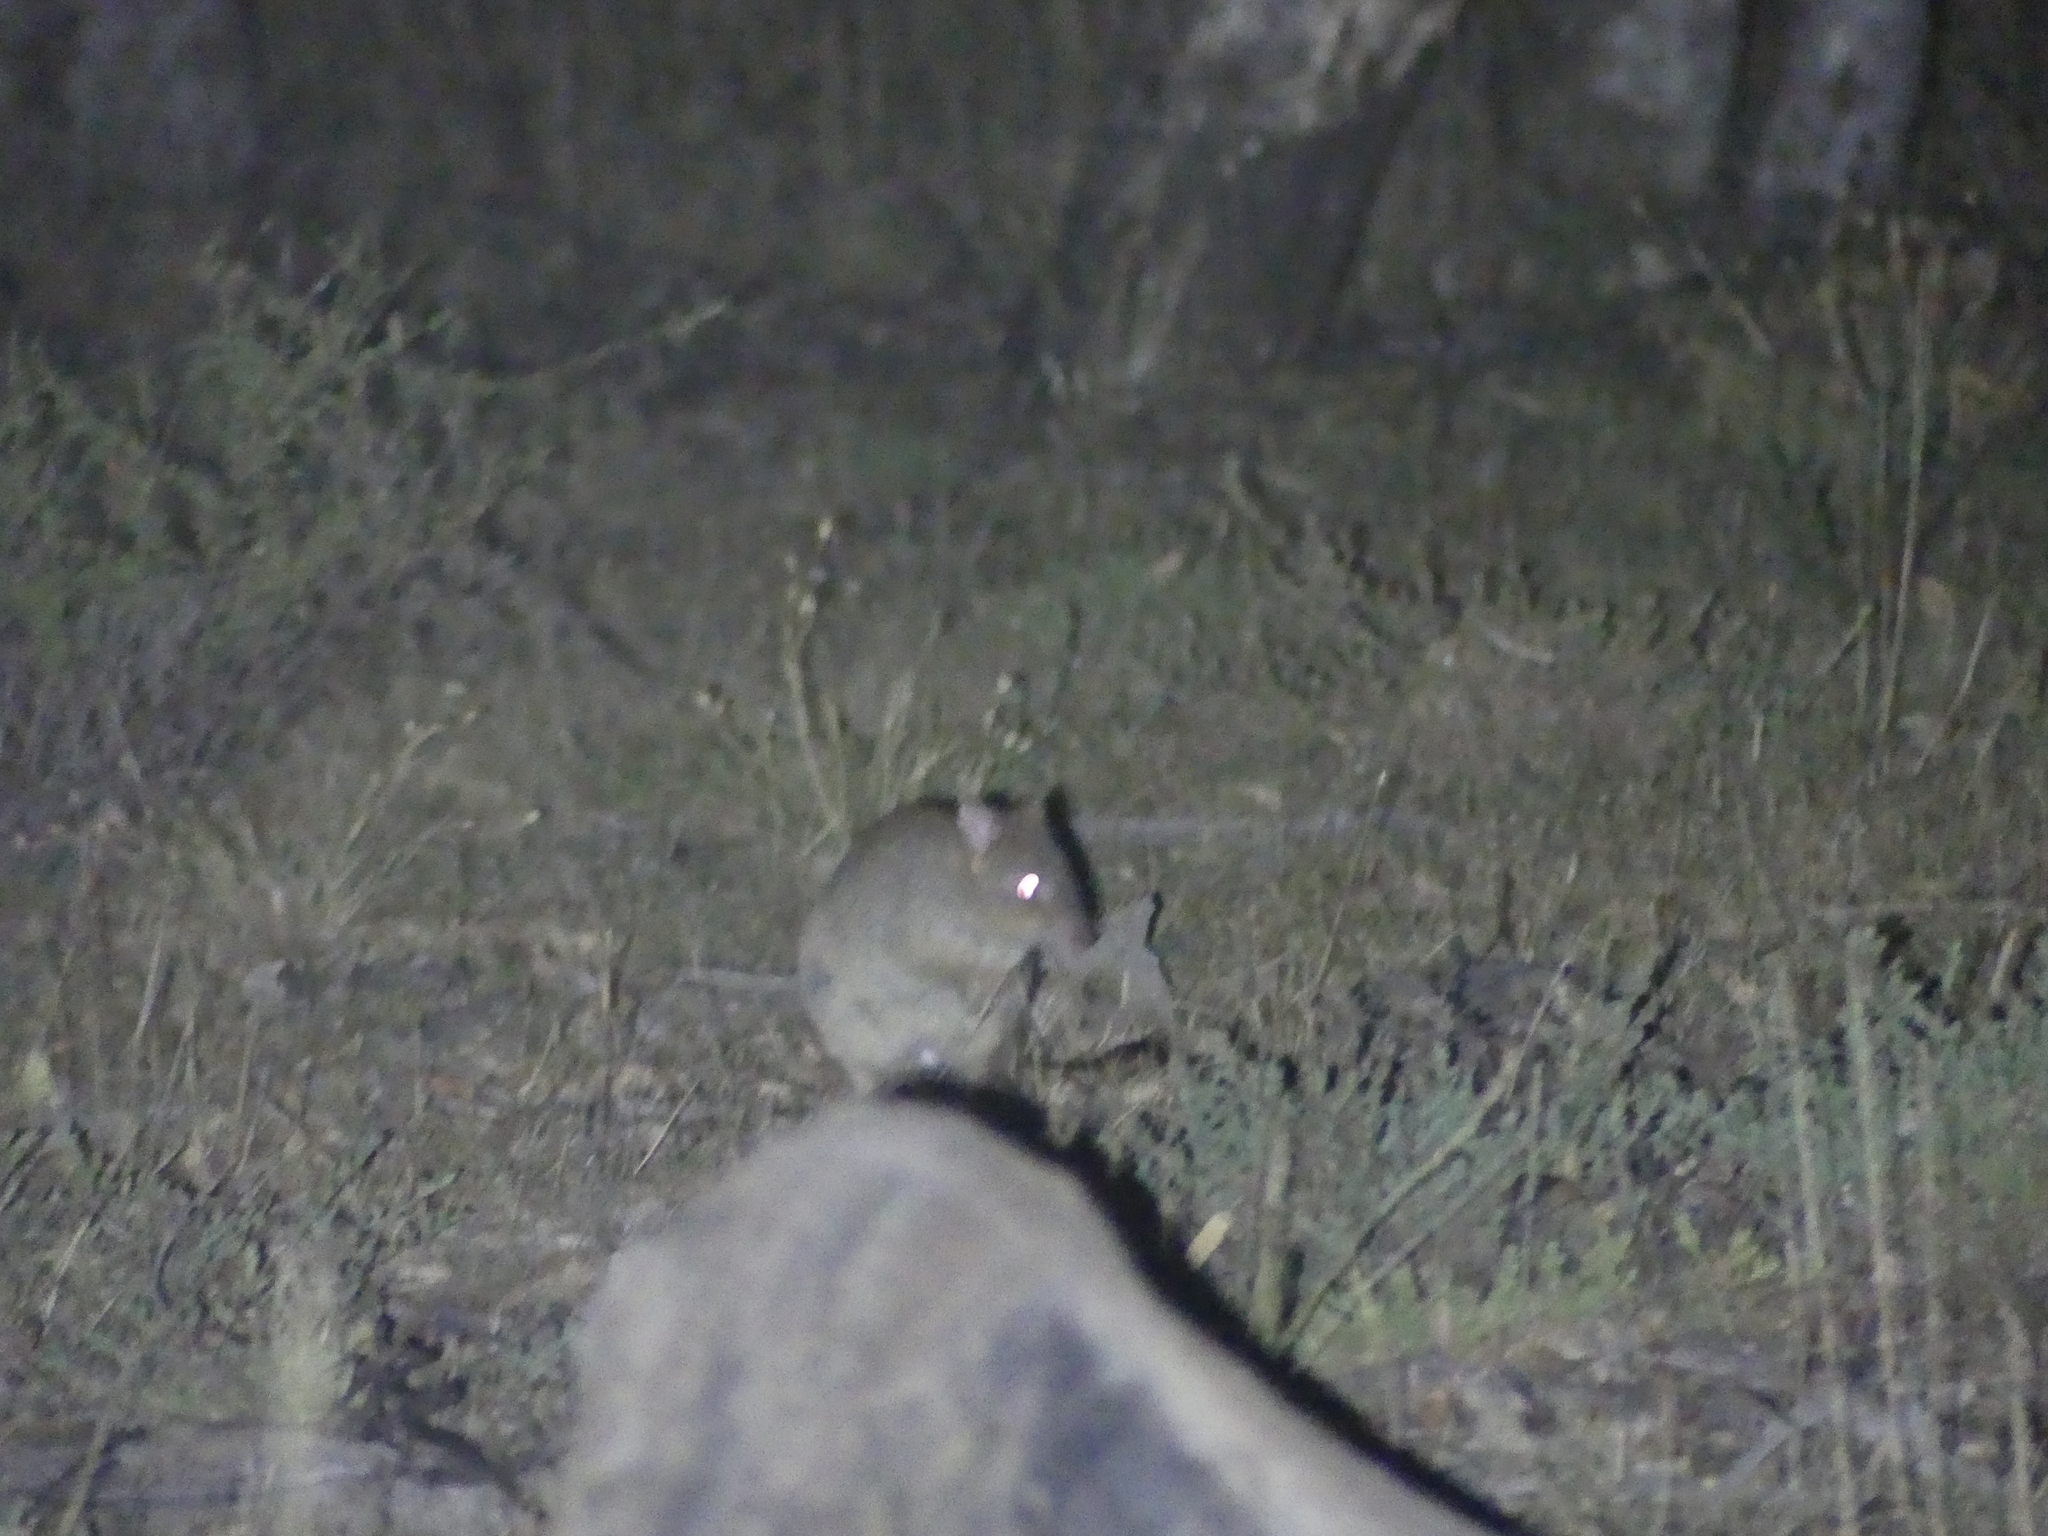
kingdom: Animalia
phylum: Chordata
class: Mammalia
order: Diprotodontia
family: Potoroidae
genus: Bettongia
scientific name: Bettongia penicillata
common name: Brush-tailed bettong
